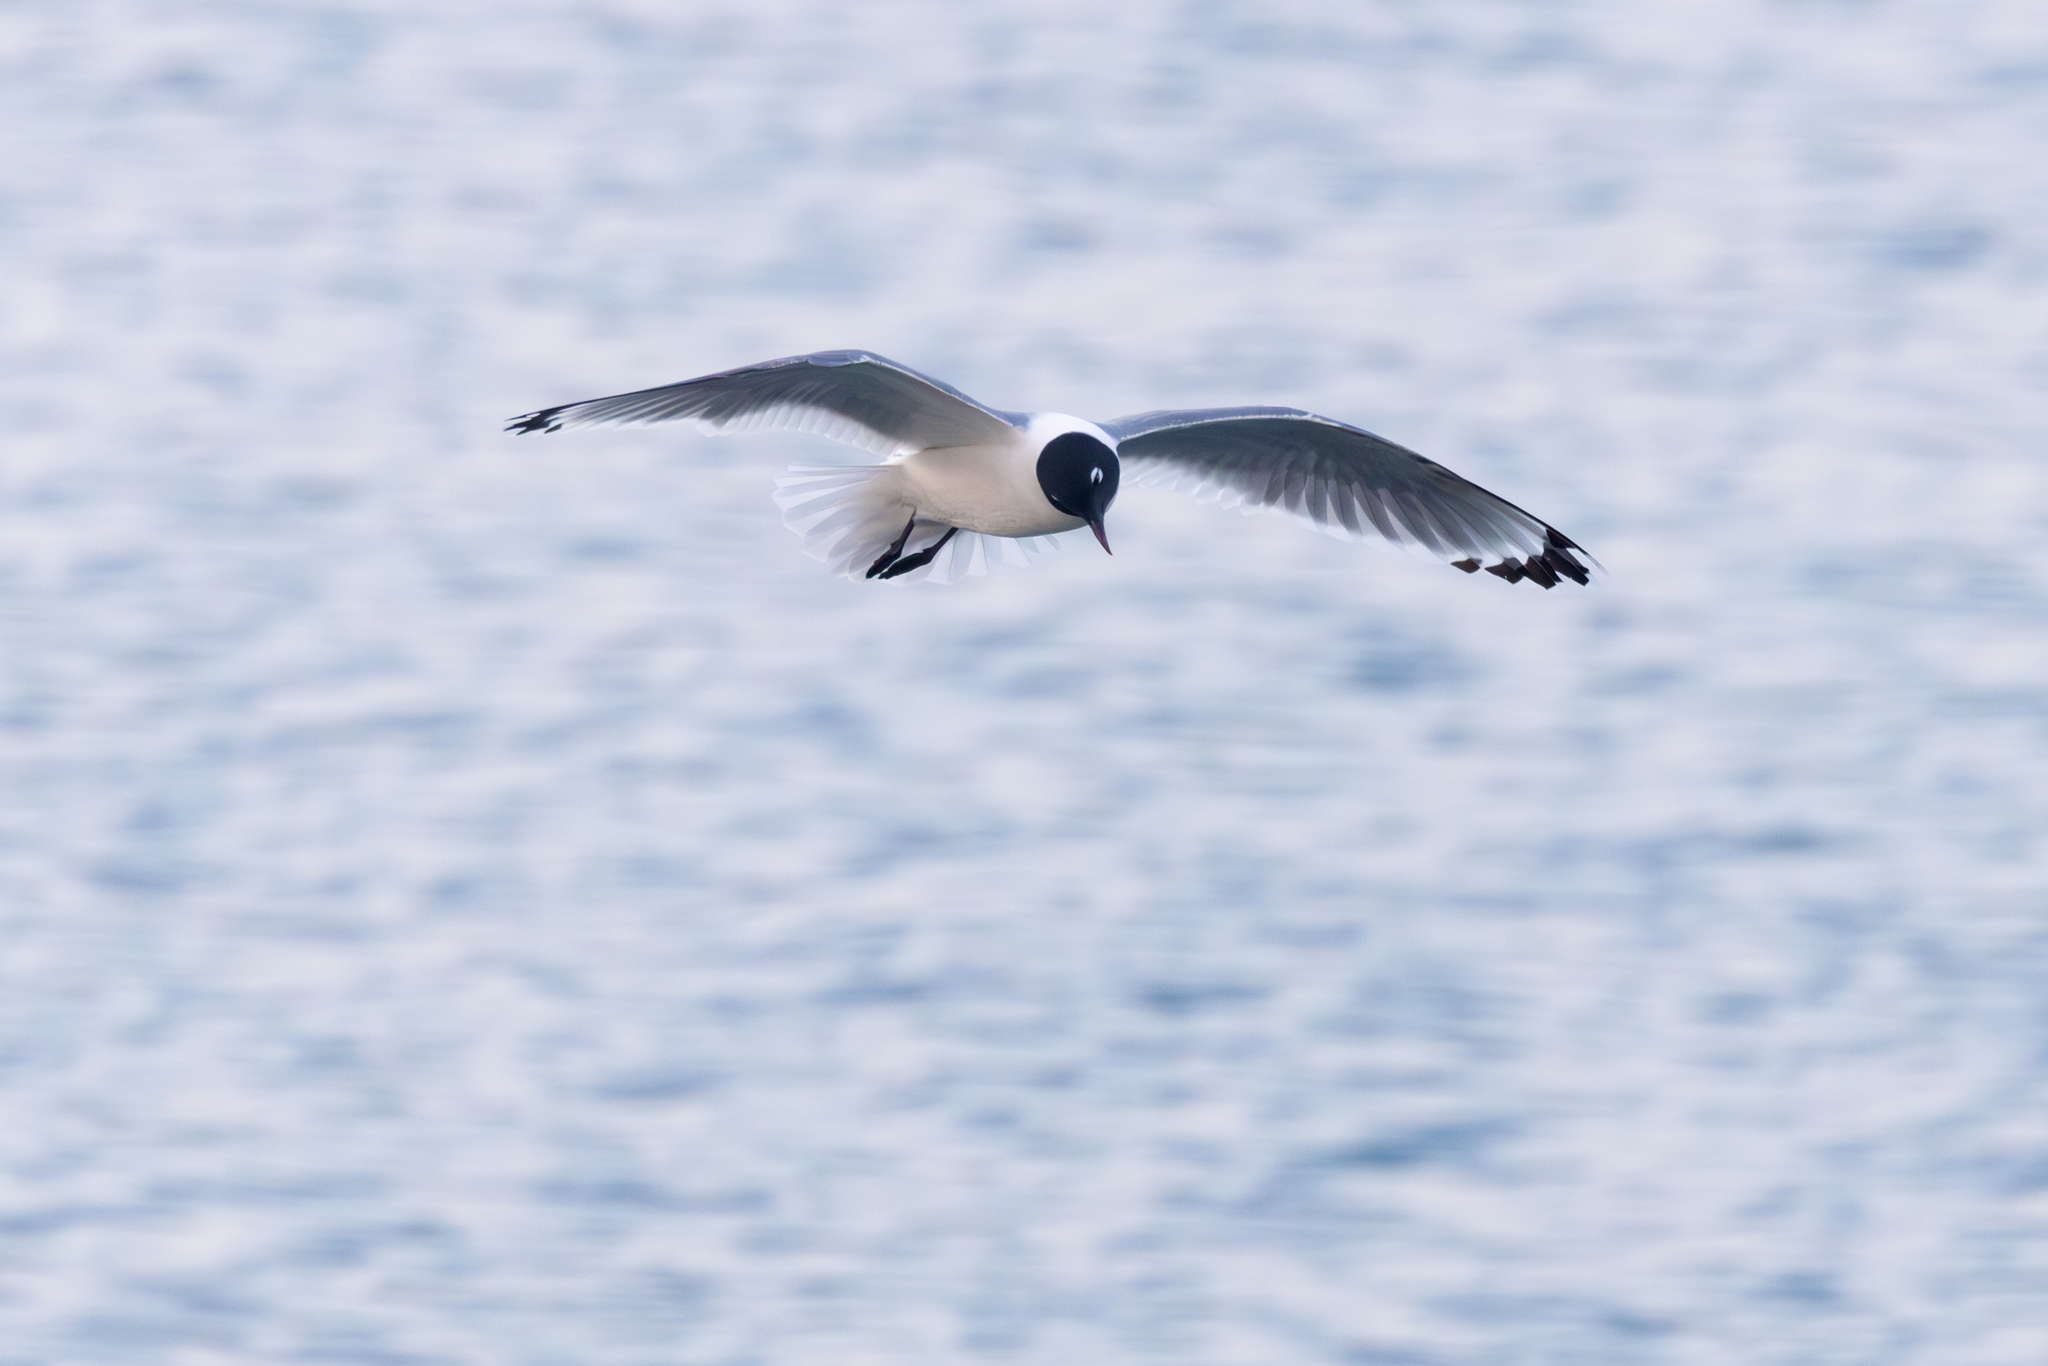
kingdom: Animalia
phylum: Chordata
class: Aves
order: Charadriiformes
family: Laridae
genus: Leucophaeus
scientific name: Leucophaeus pipixcan
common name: Franklin's gull
